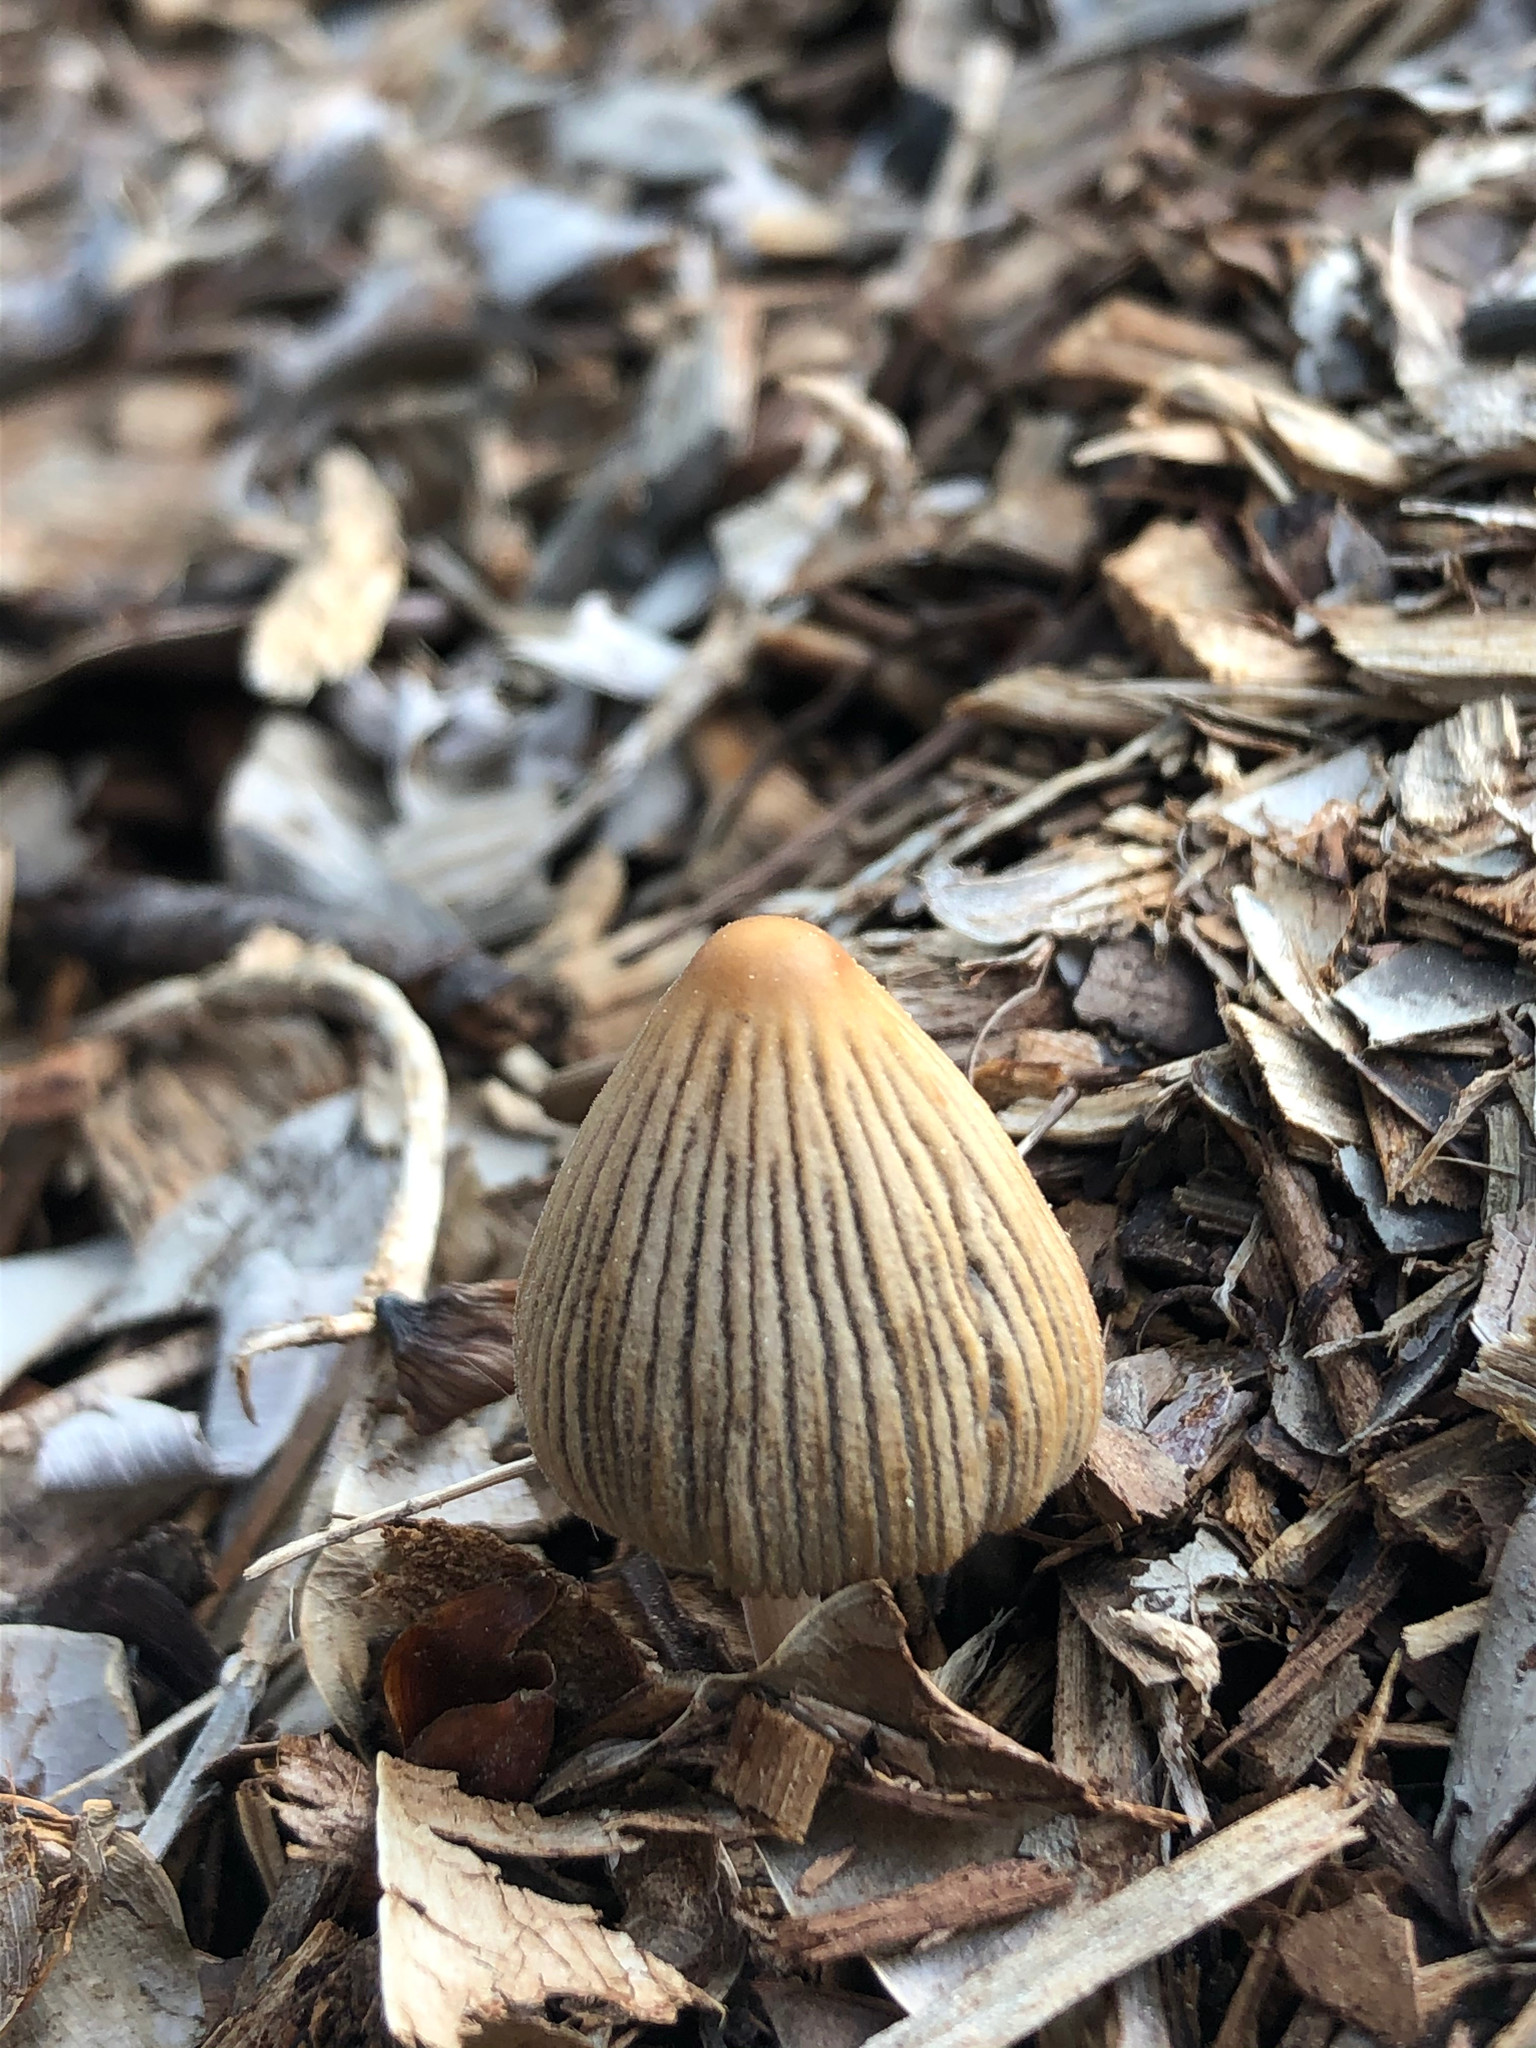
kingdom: Fungi
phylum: Basidiomycota
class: Agaricomycetes
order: Agaricales
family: Psathyrellaceae
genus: Tulosesus
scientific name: Tulosesus impatiens
